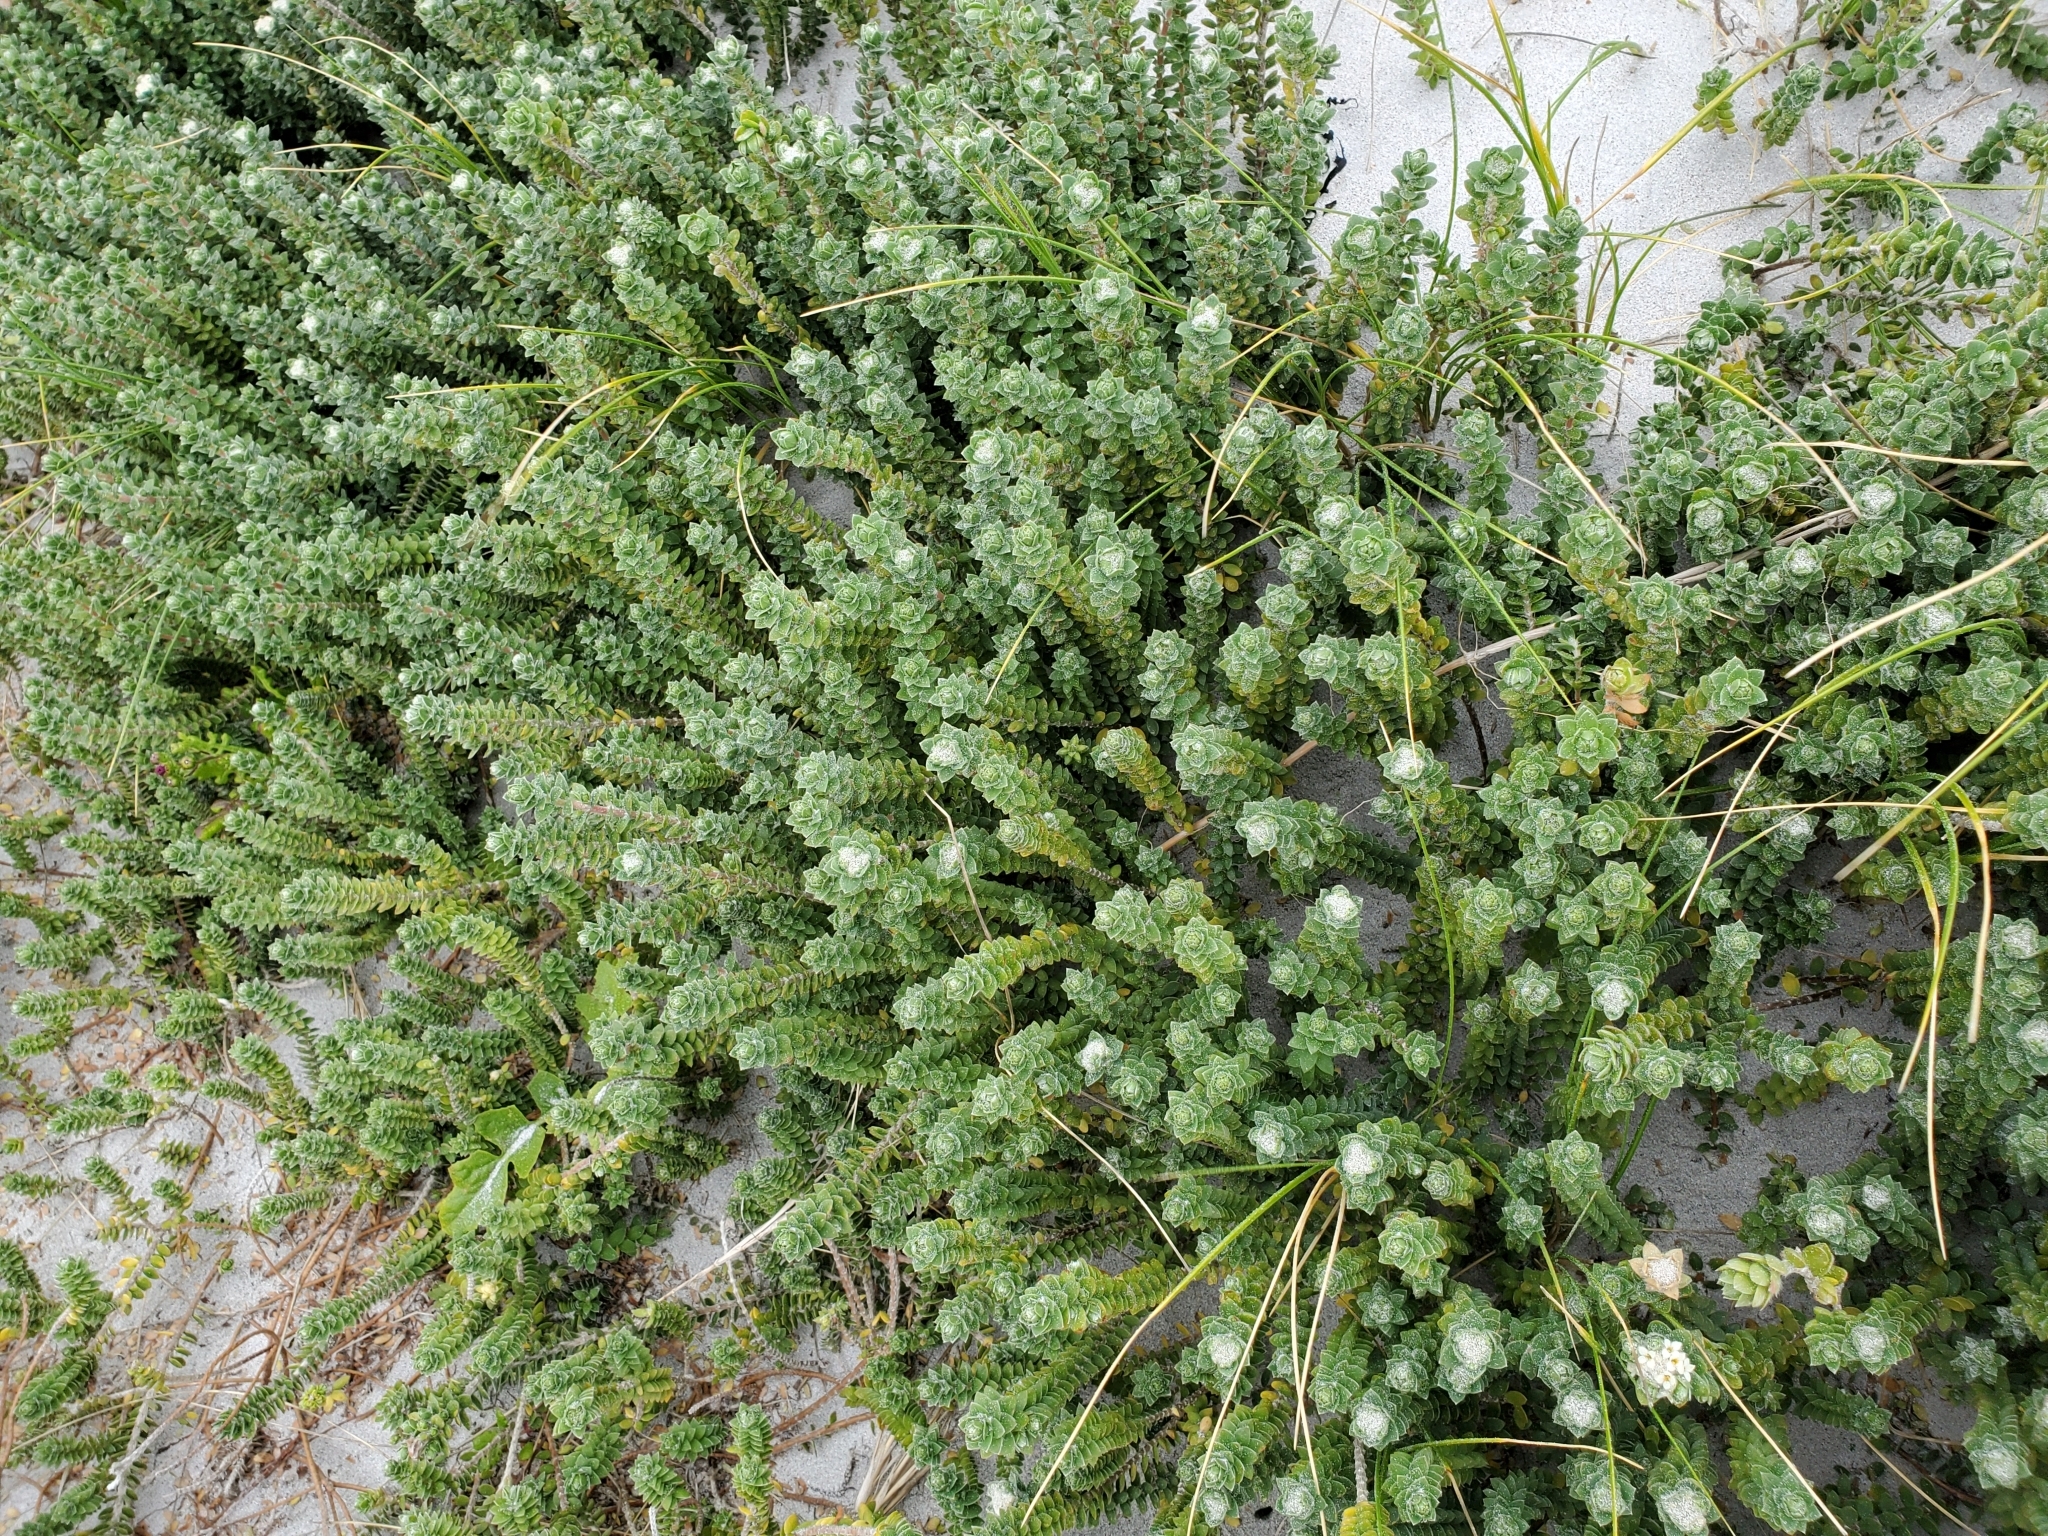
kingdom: Plantae
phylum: Tracheophyta
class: Magnoliopsida
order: Malvales
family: Thymelaeaceae
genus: Pimelea
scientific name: Pimelea villosa
